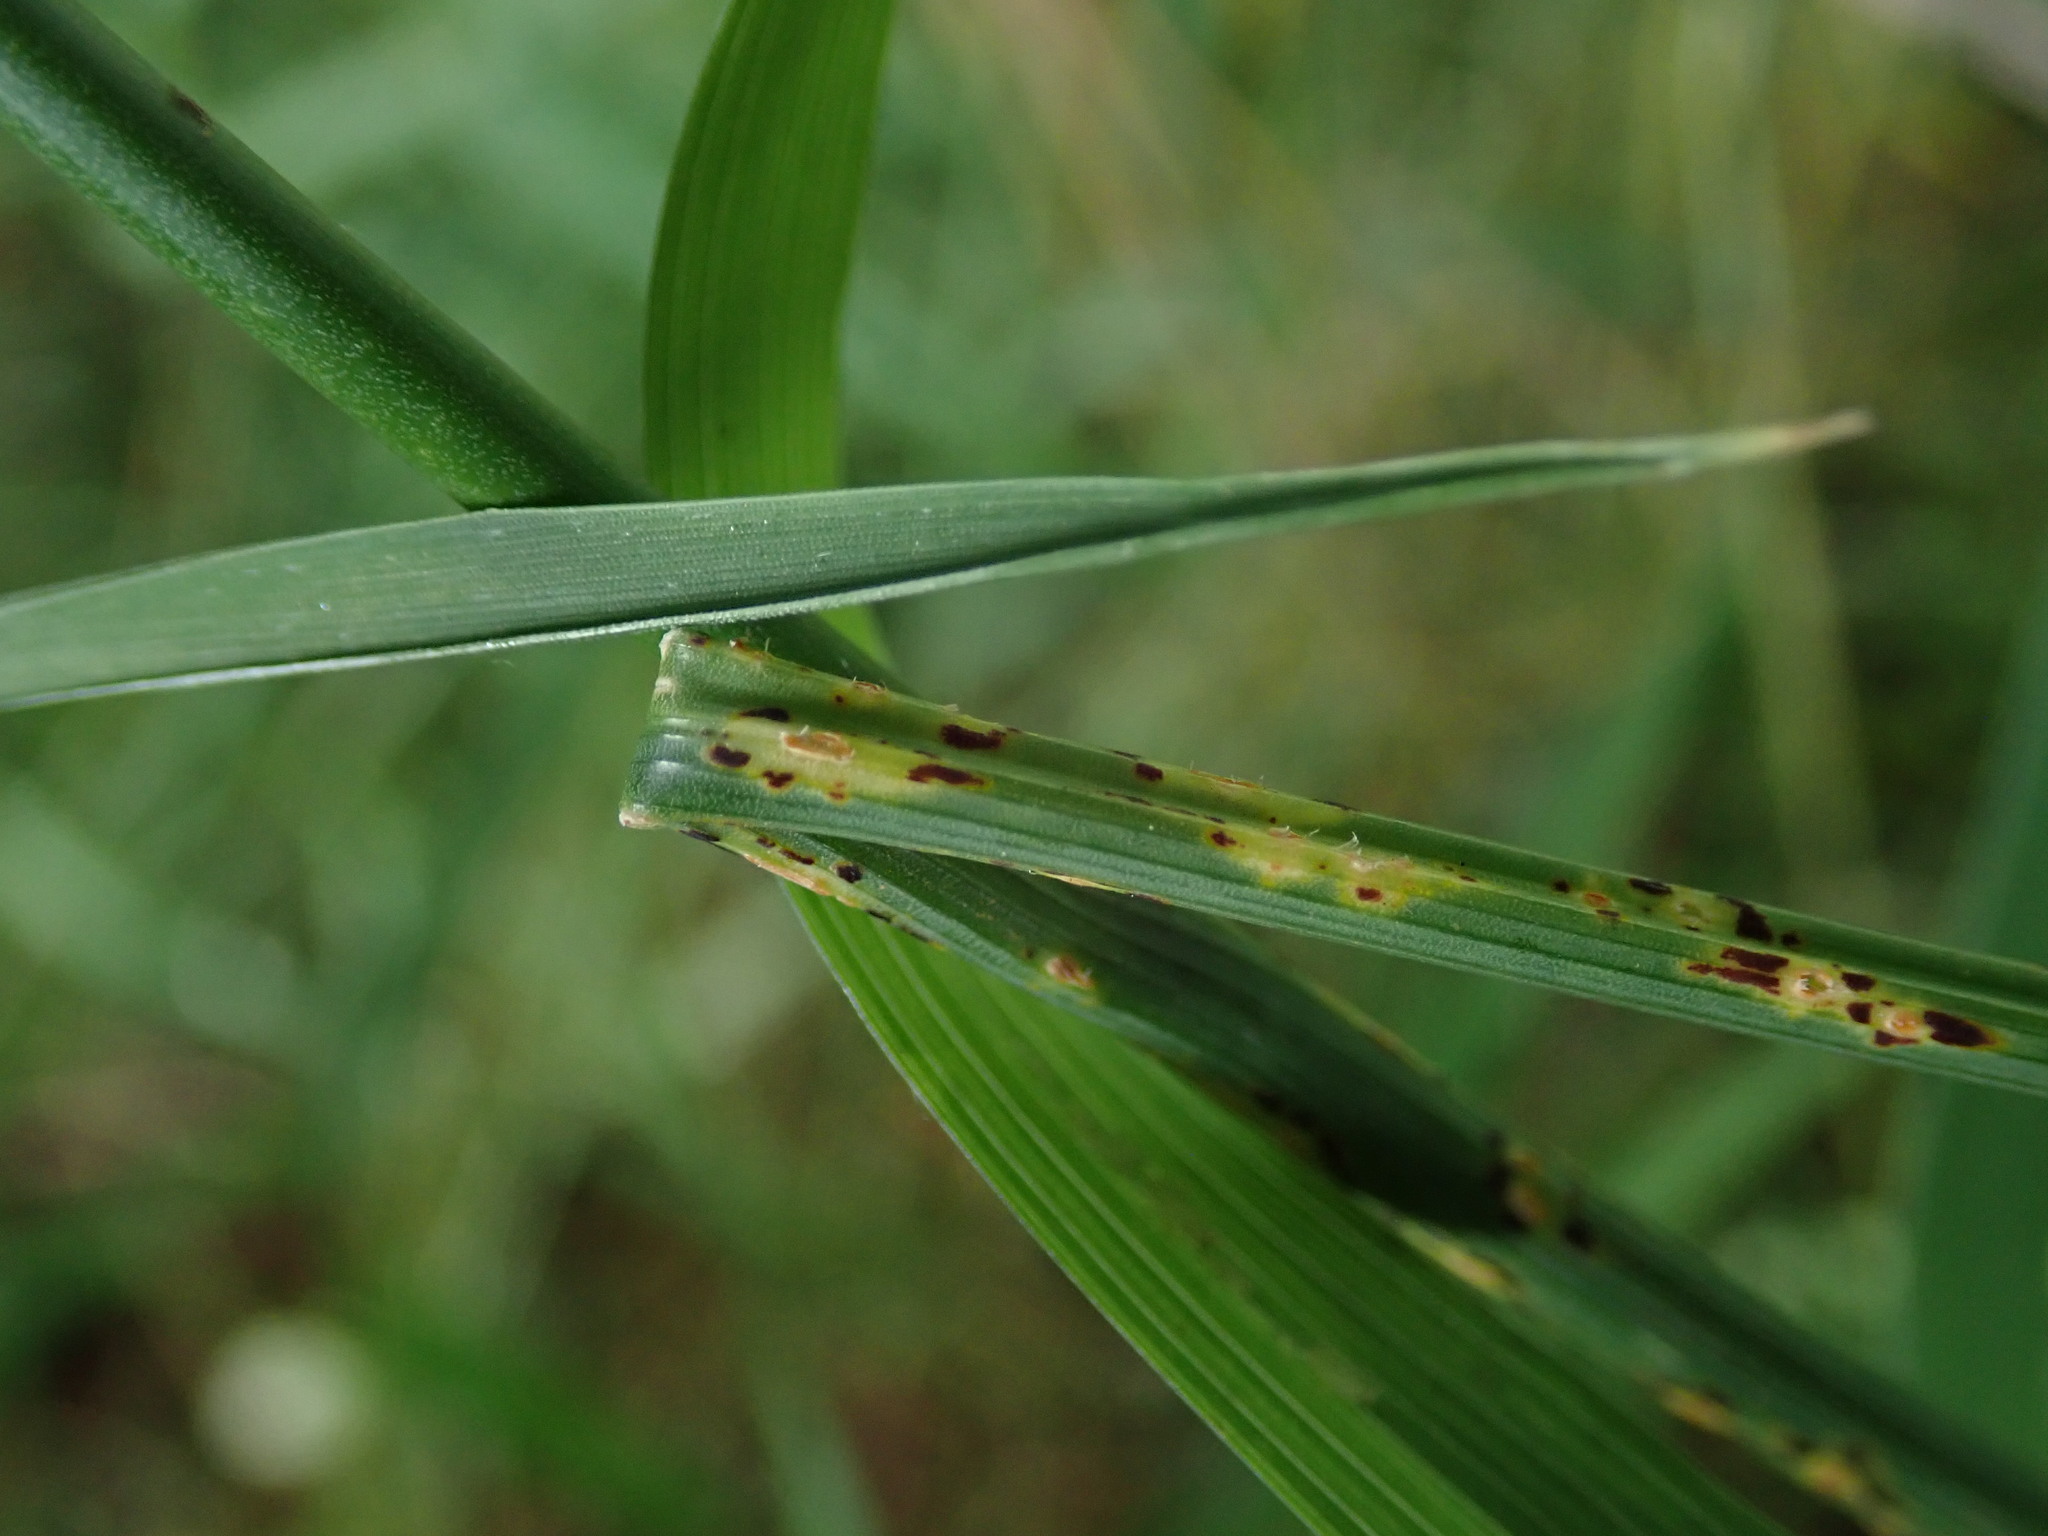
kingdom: Plantae
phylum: Tracheophyta
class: Liliopsida
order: Asparagales
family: Amaryllidaceae
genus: Allium
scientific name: Allium vineale
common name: Crow garlic
